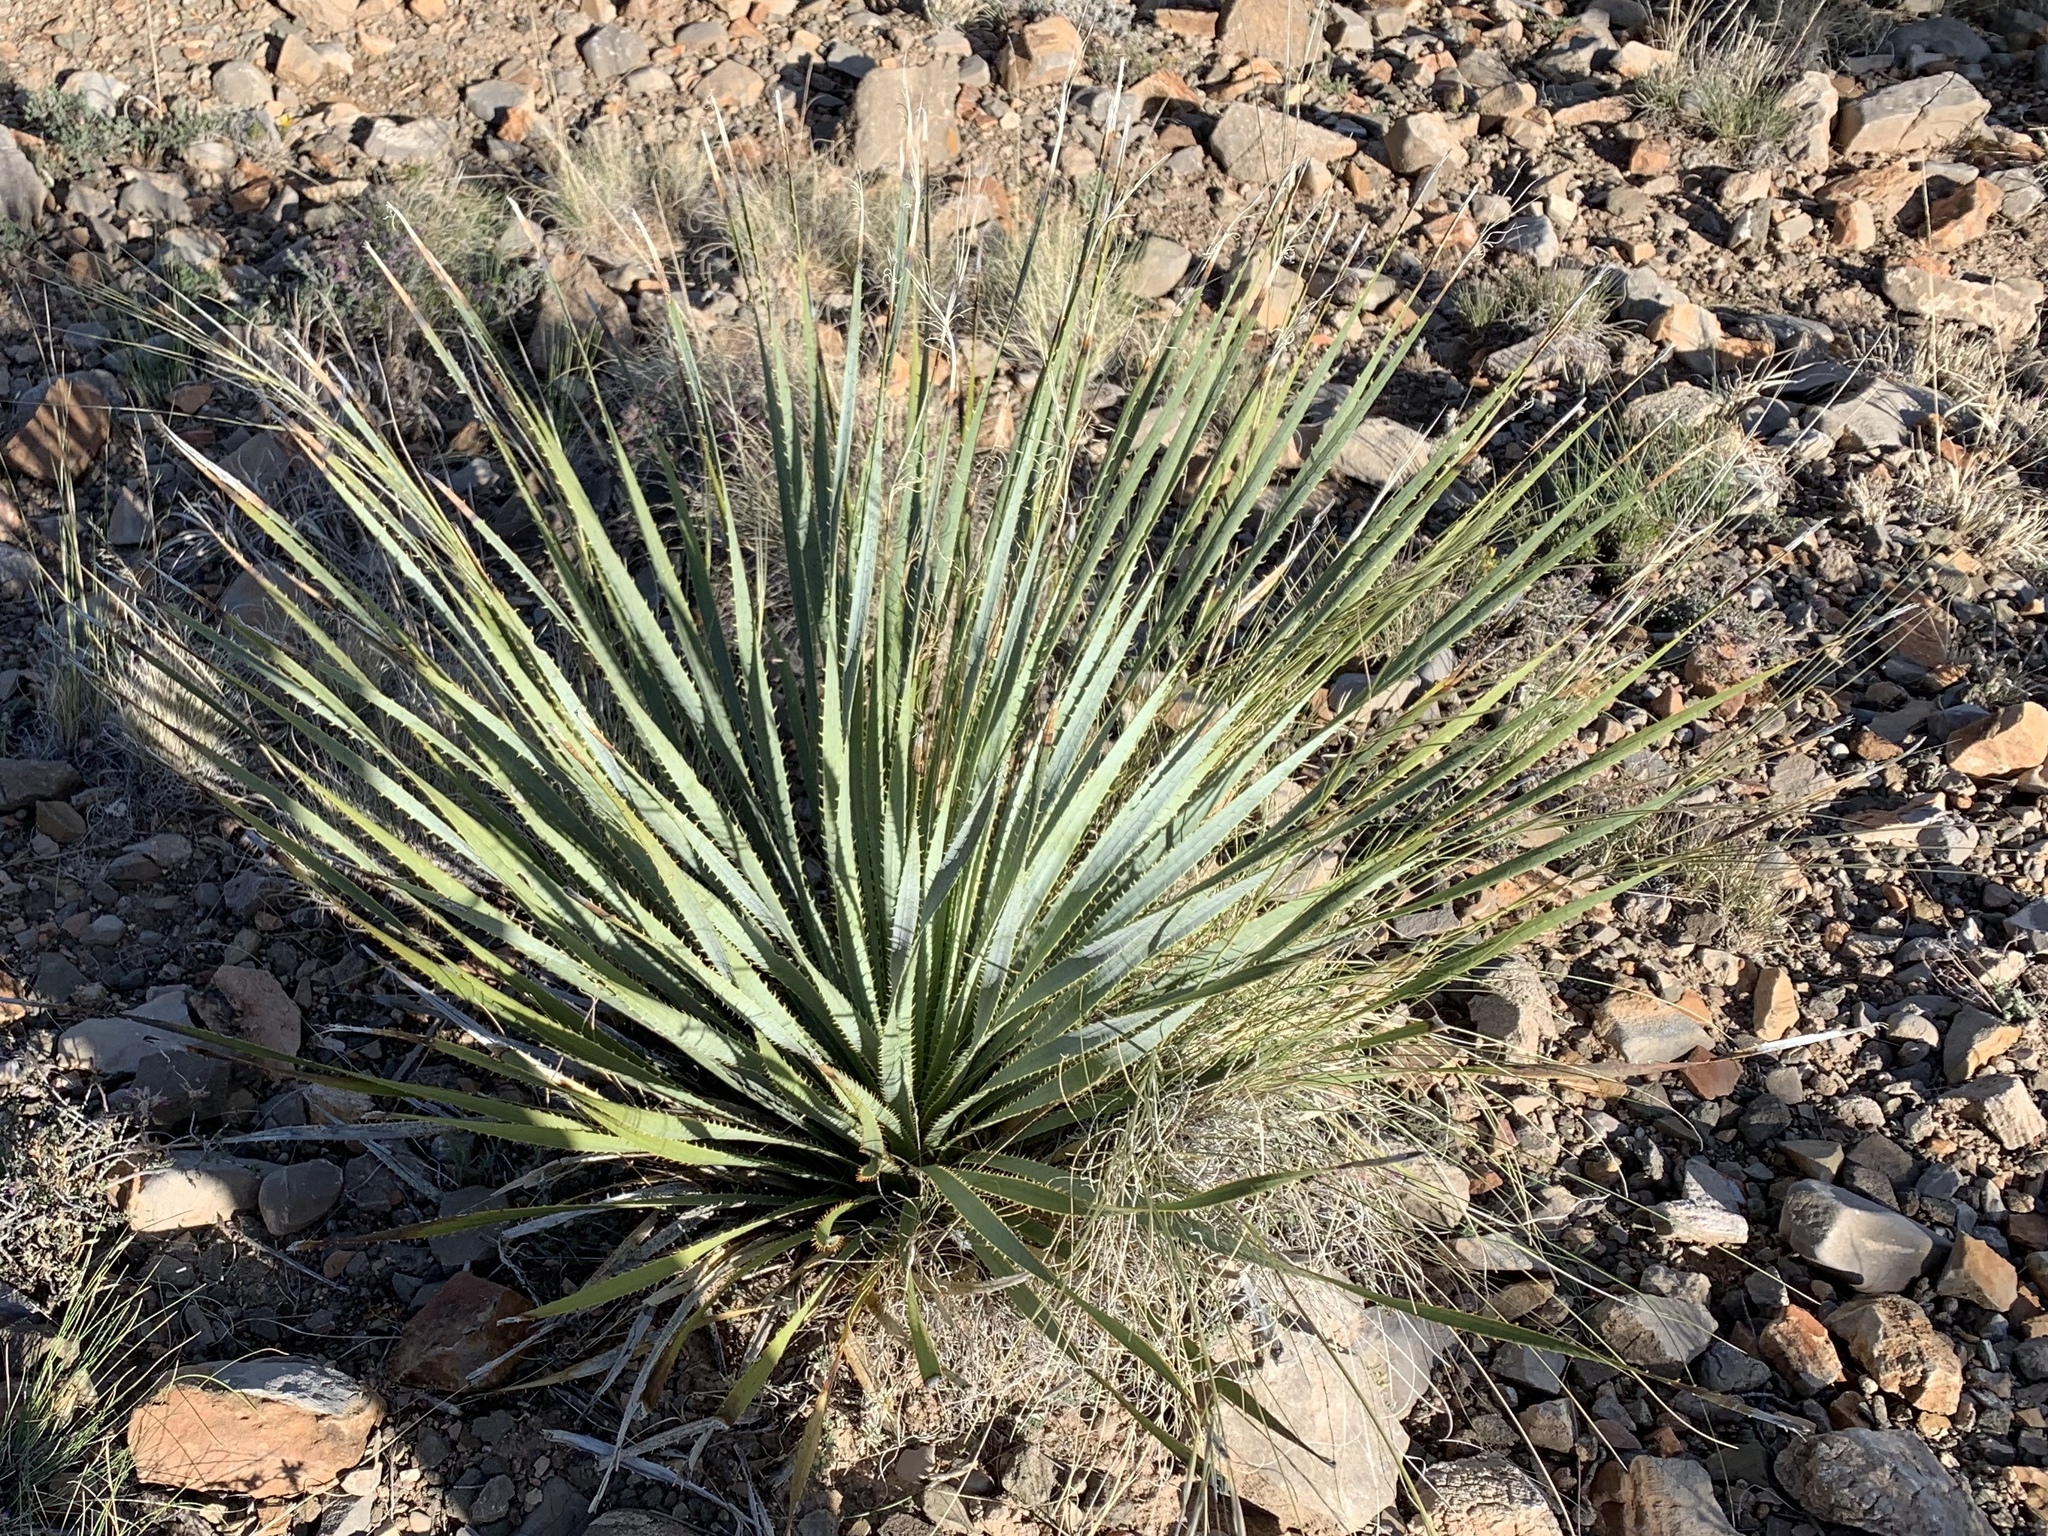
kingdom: Plantae
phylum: Tracheophyta
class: Liliopsida
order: Asparagales
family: Asparagaceae
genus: Dasylirion
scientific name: Dasylirion wheeleri
